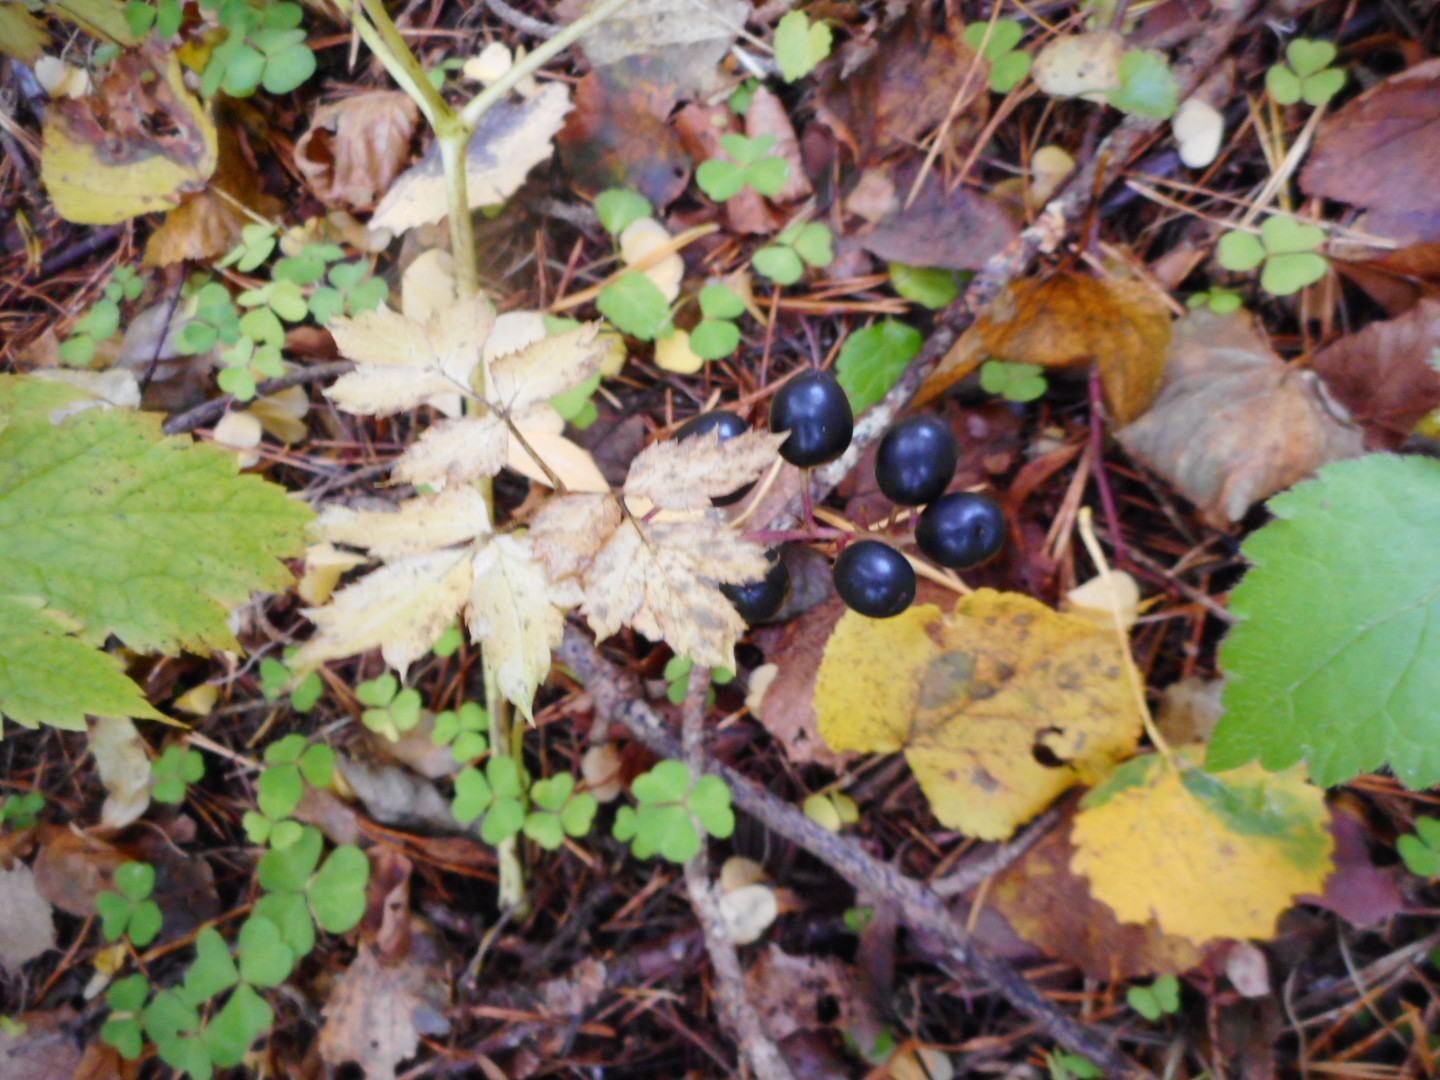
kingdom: Plantae
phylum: Tracheophyta
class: Magnoliopsida
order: Ranunculales
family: Ranunculaceae
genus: Actaea
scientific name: Actaea spicata
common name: Baneberry
